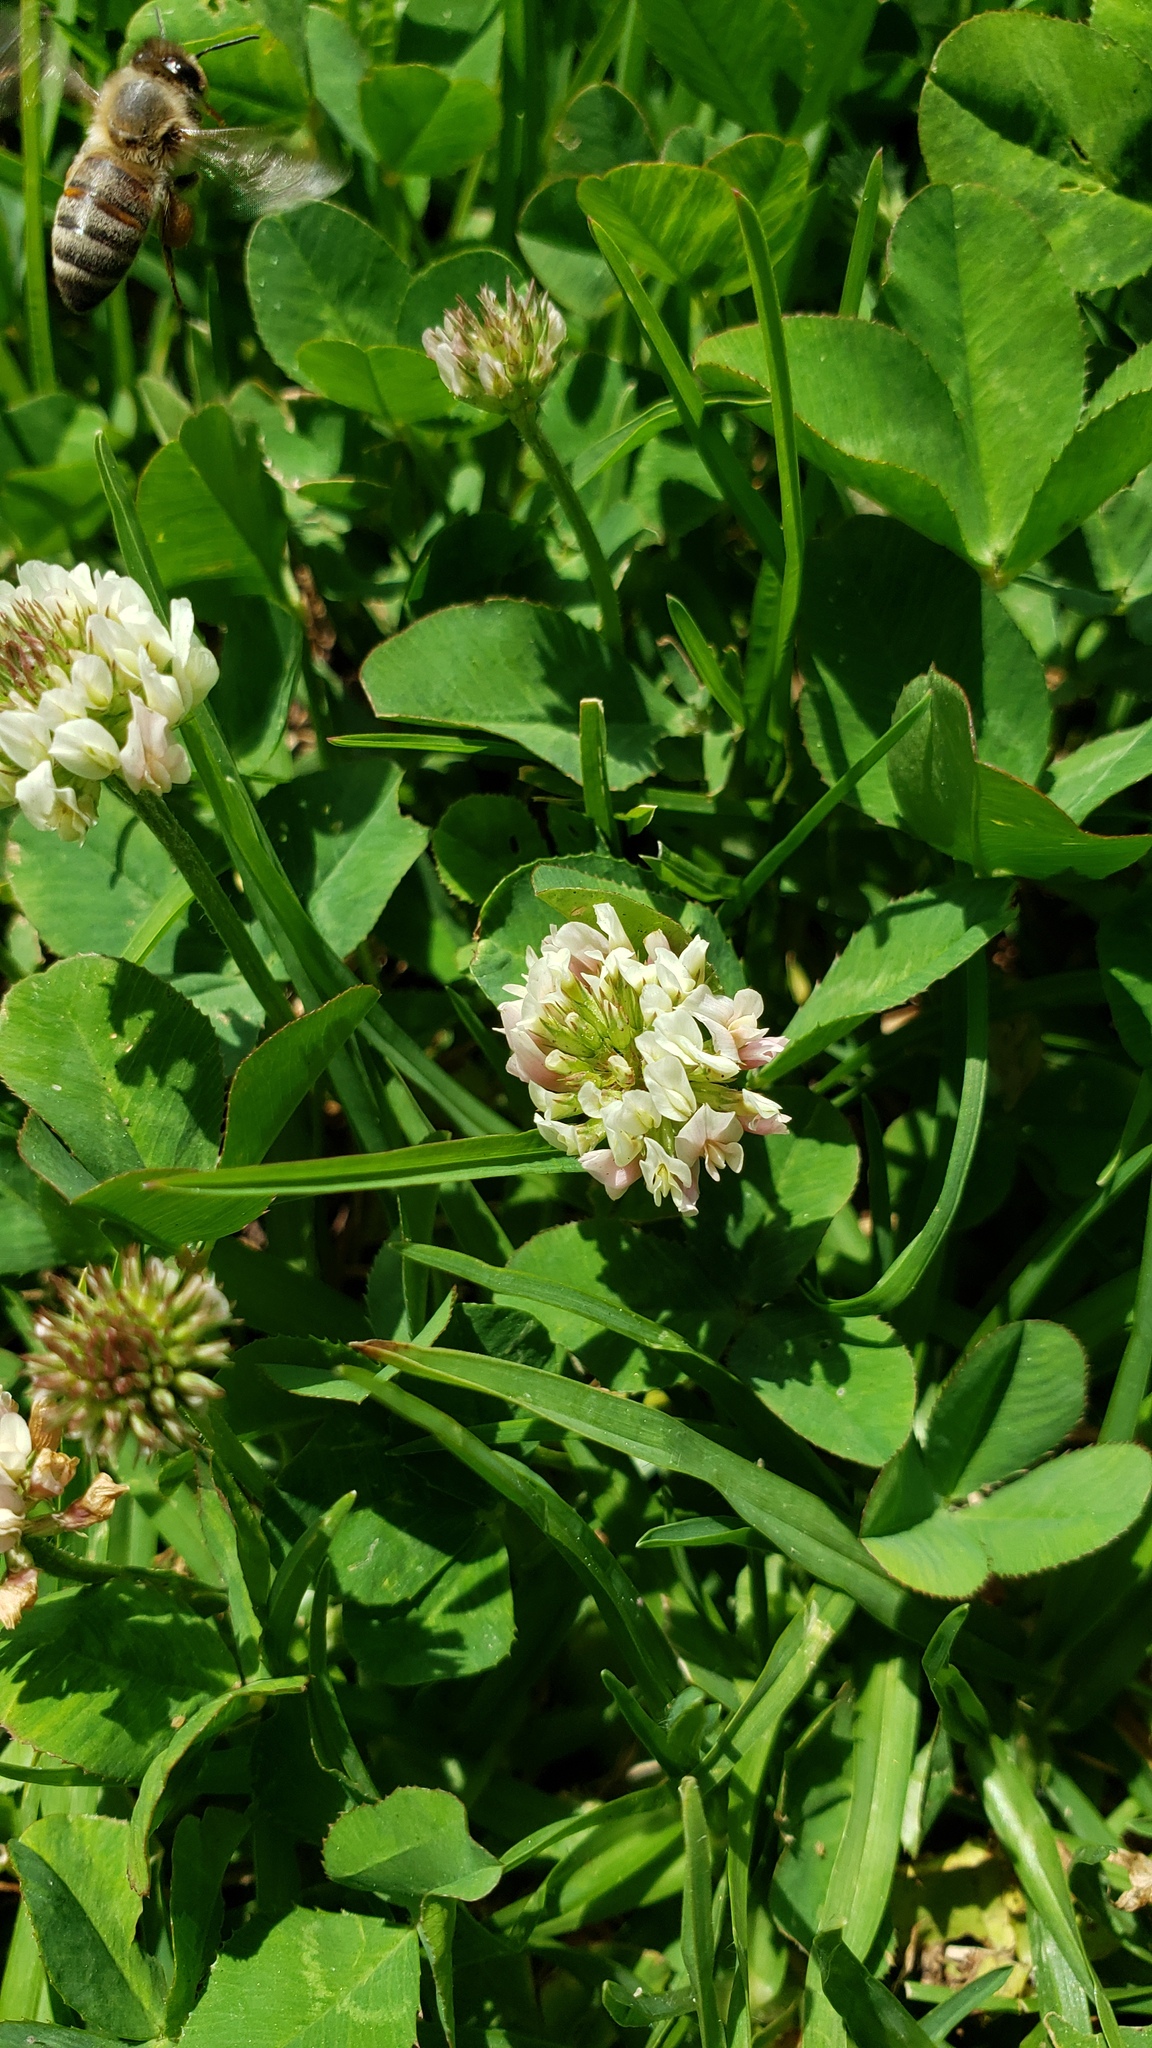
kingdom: Plantae
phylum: Tracheophyta
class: Magnoliopsida
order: Fabales
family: Fabaceae
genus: Trifolium
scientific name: Trifolium repens
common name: White clover
